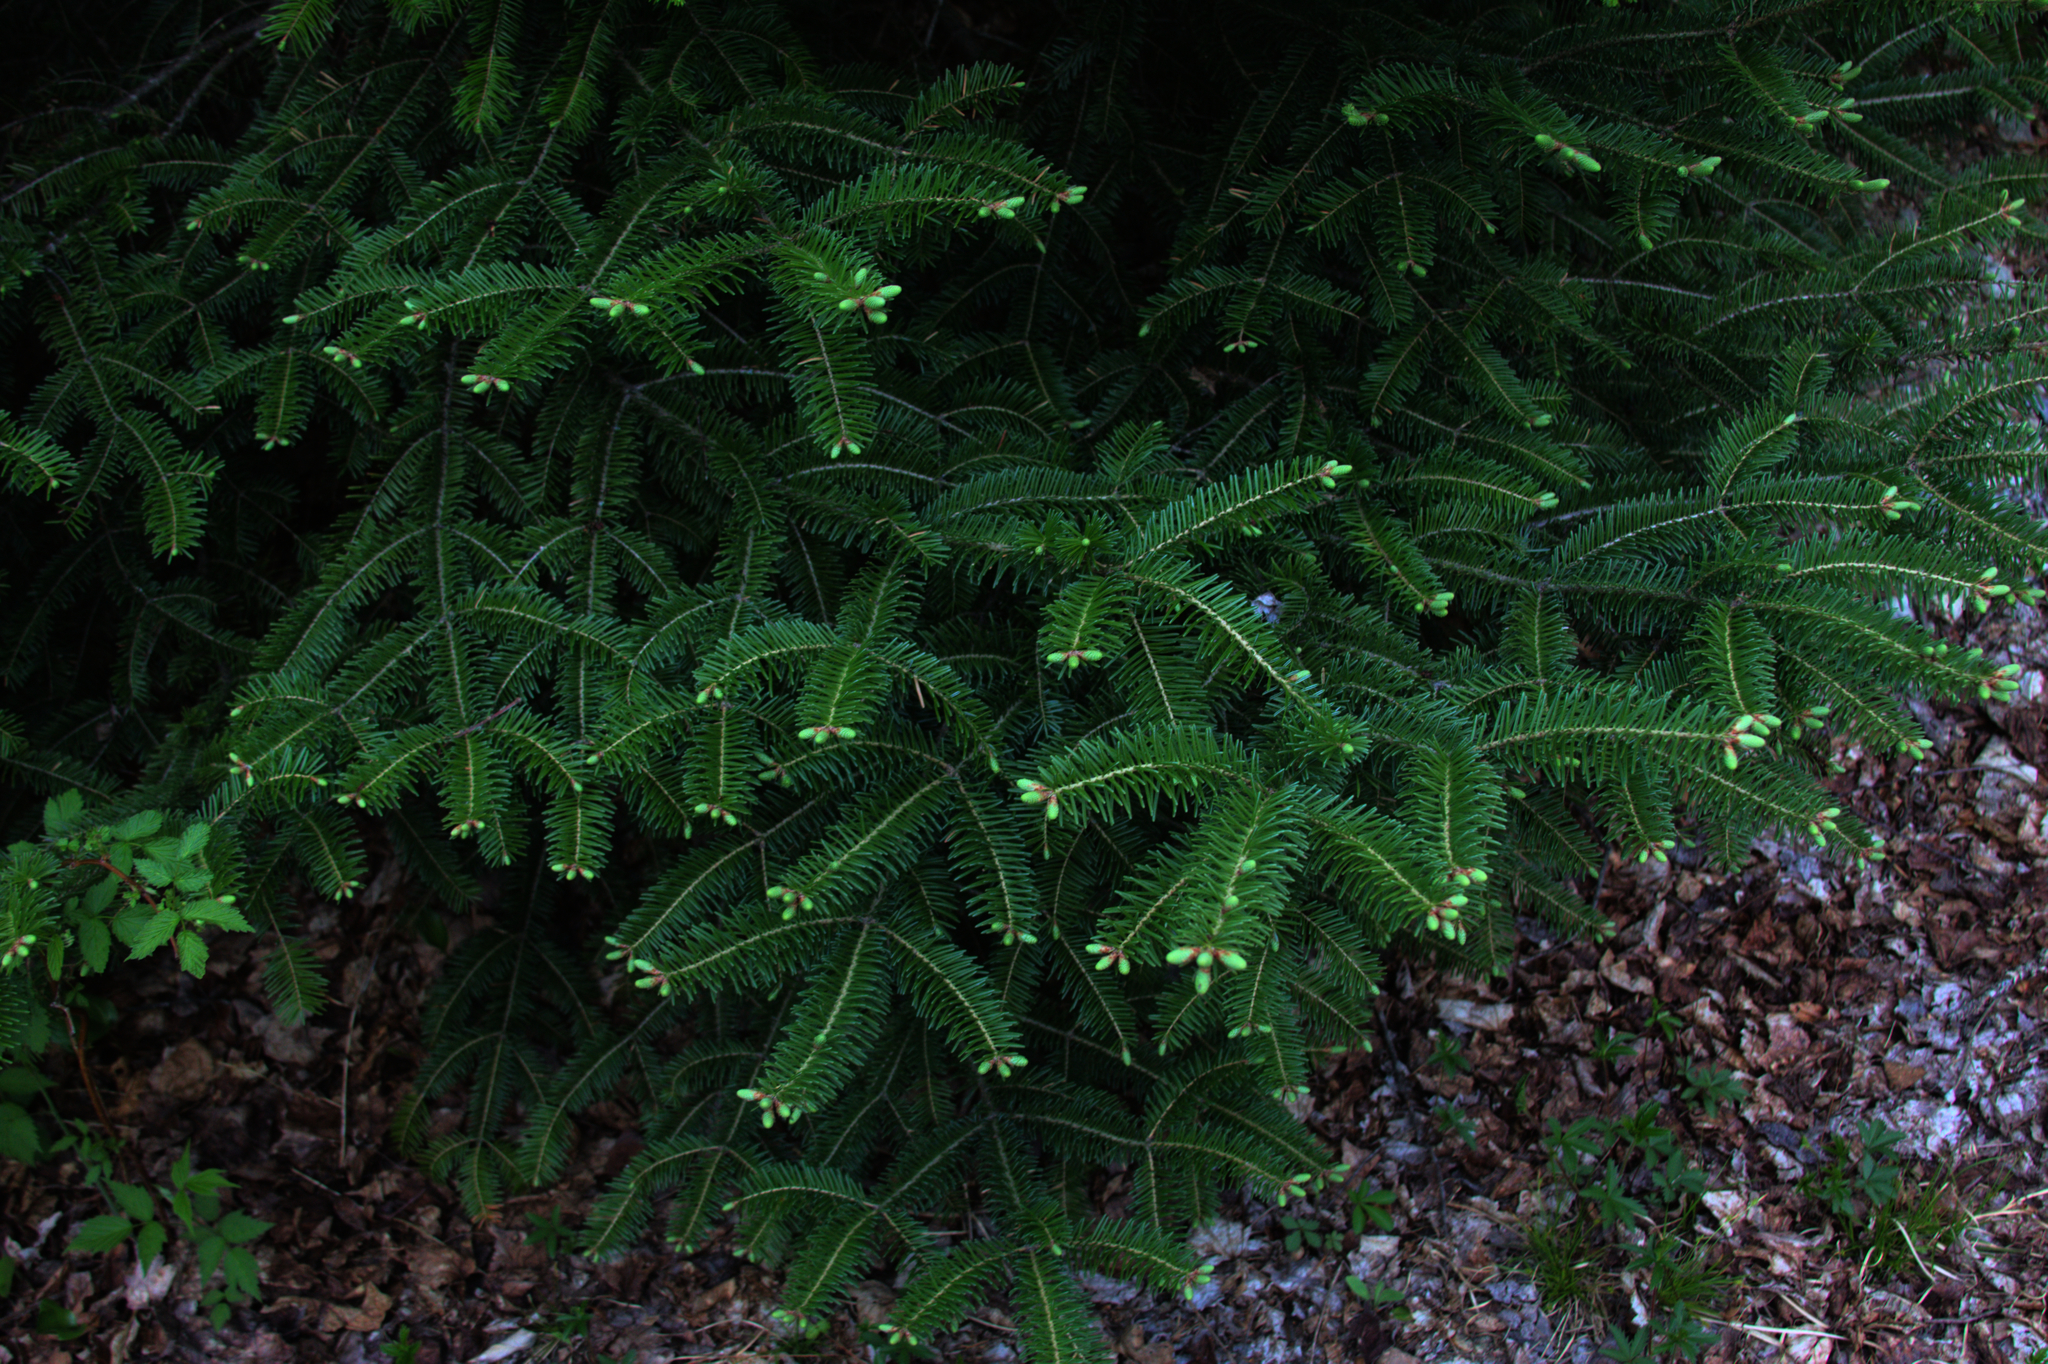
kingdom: Plantae
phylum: Tracheophyta
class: Pinopsida
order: Pinales
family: Pinaceae
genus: Abies
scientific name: Abies balsamea
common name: Balsam fir
